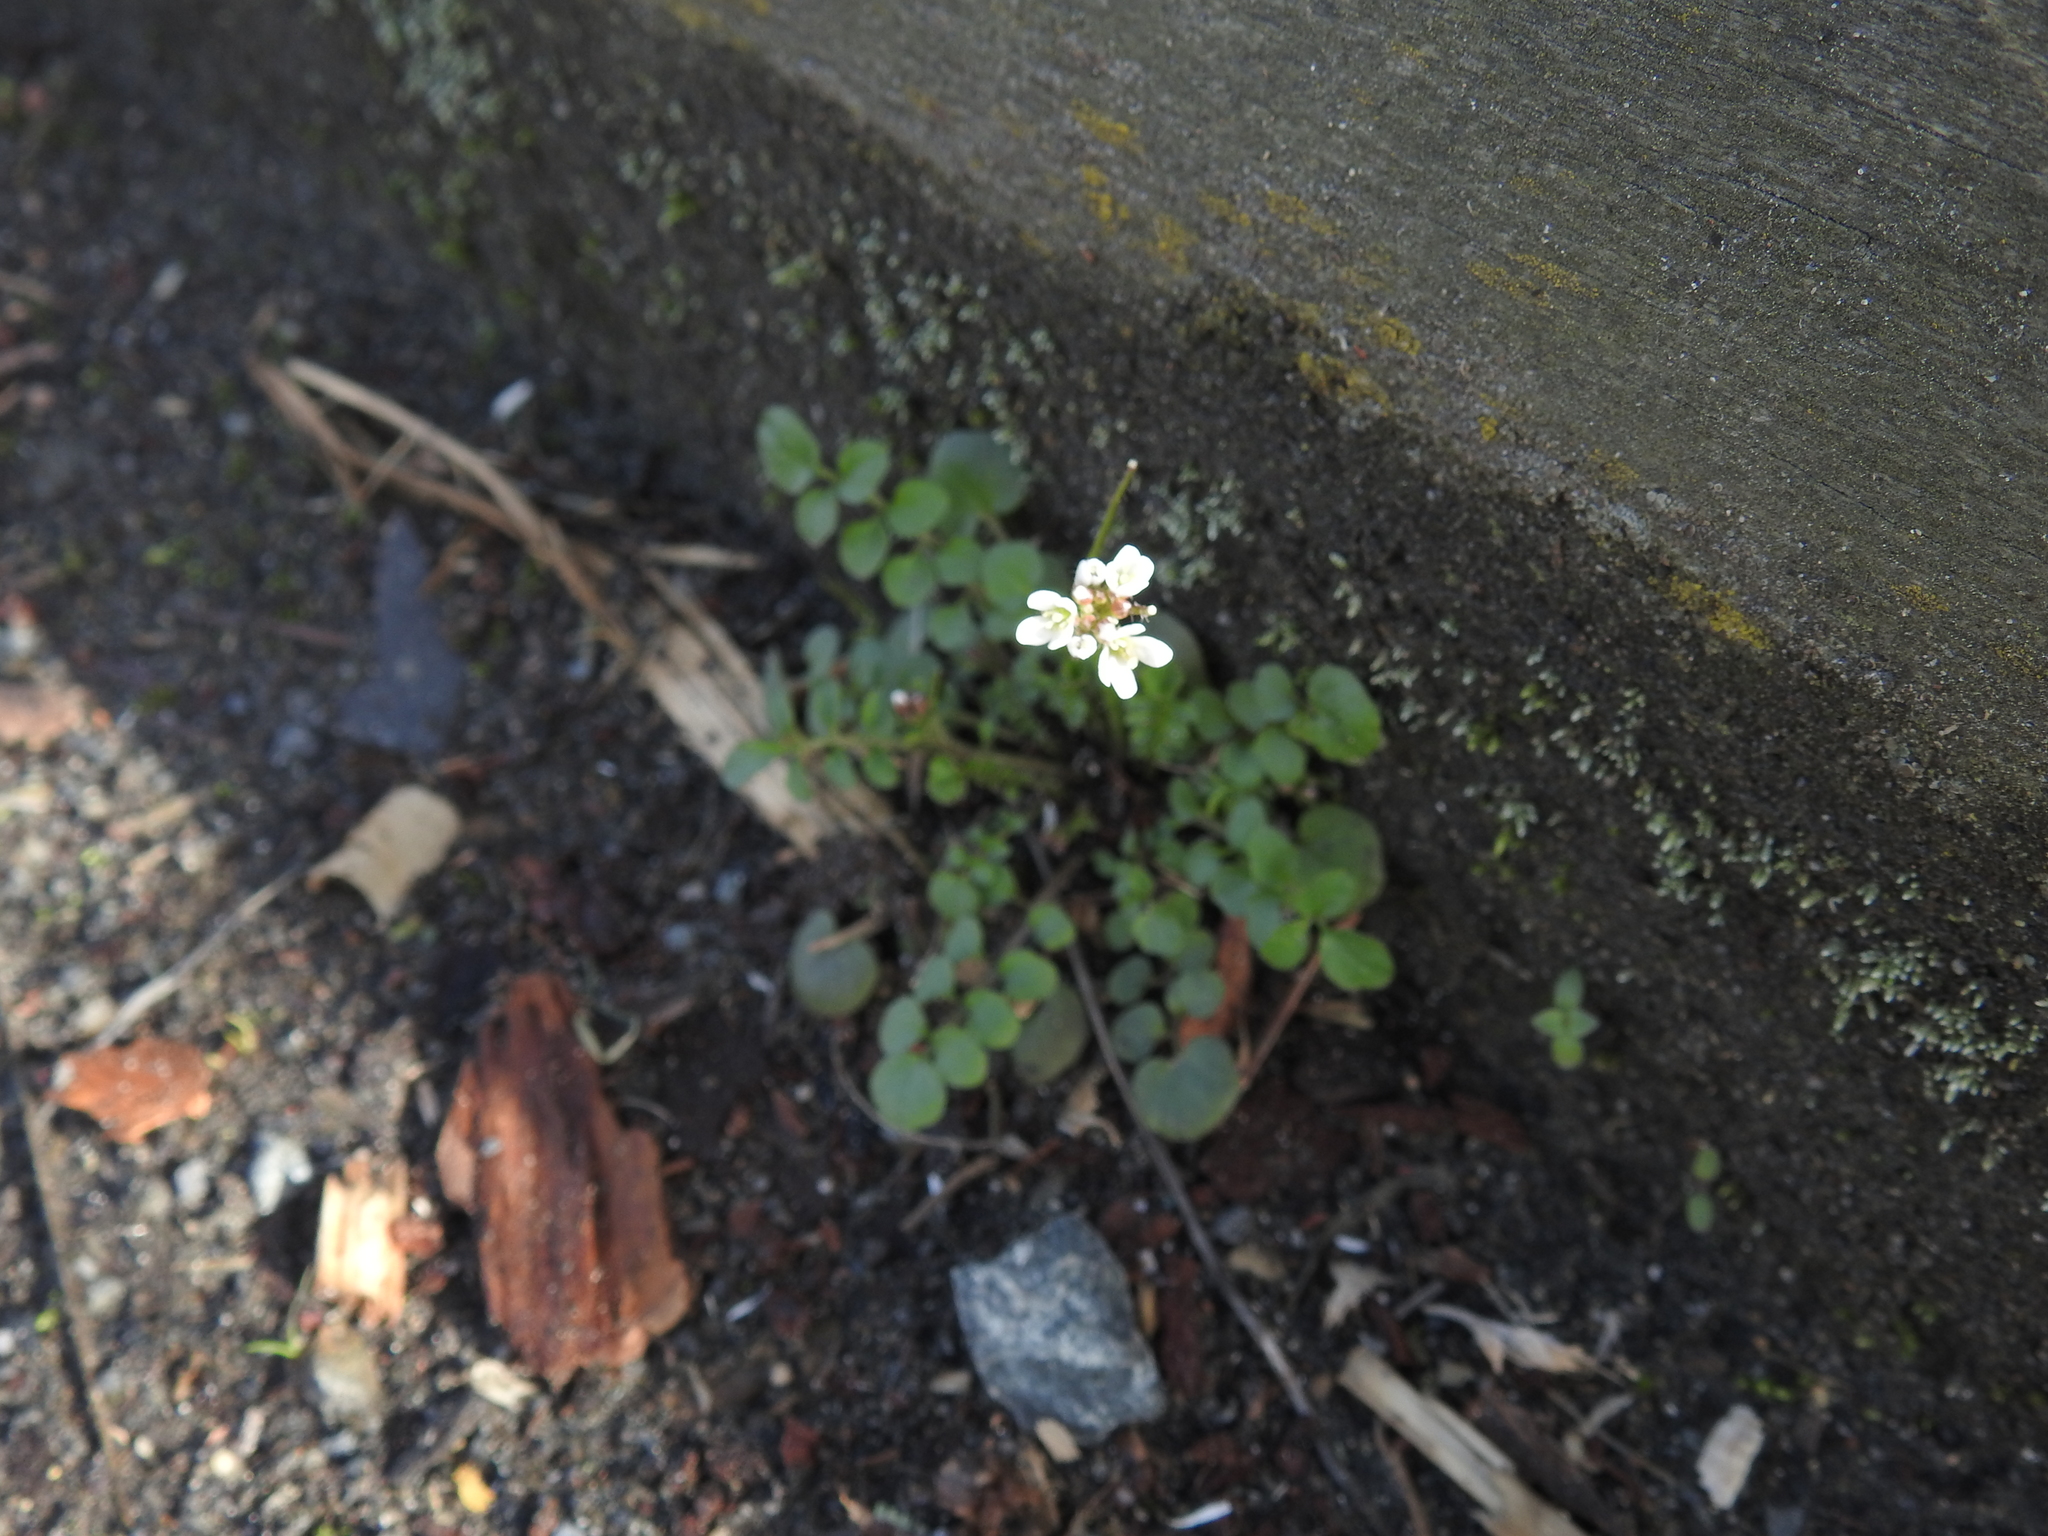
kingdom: Plantae
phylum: Tracheophyta
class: Magnoliopsida
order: Brassicales
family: Brassicaceae
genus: Cardamine
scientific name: Cardamine hirsuta
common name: Hairy bittercress
